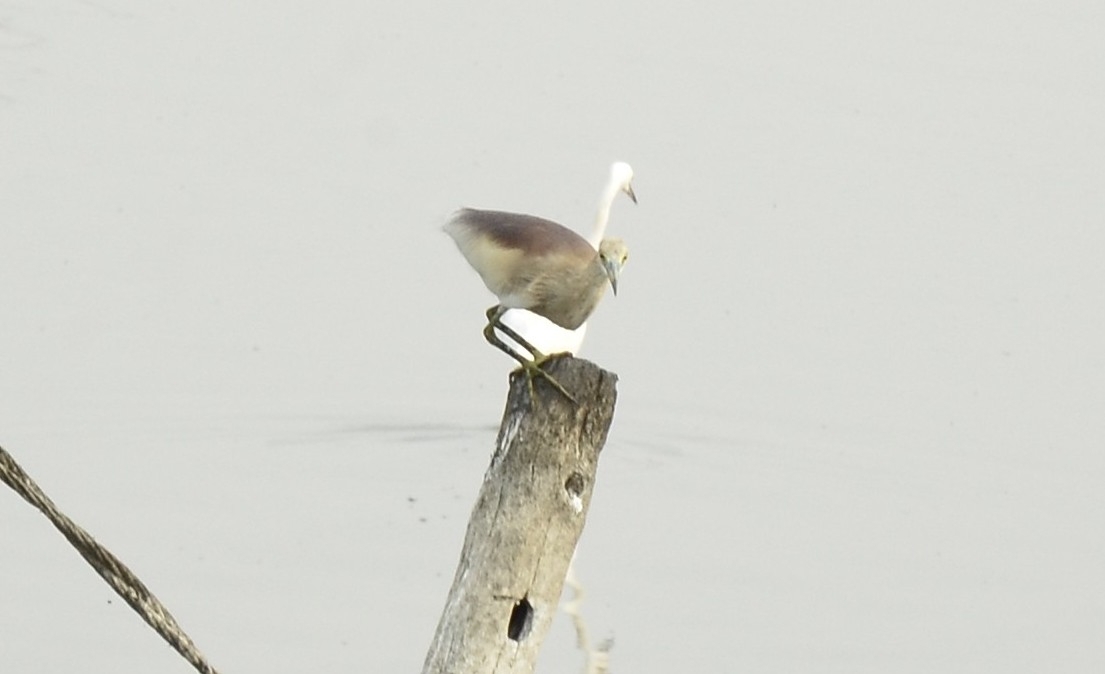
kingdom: Animalia
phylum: Chordata
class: Aves
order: Pelecaniformes
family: Ardeidae
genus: Ardeola
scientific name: Ardeola grayii
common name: Indian pond heron
